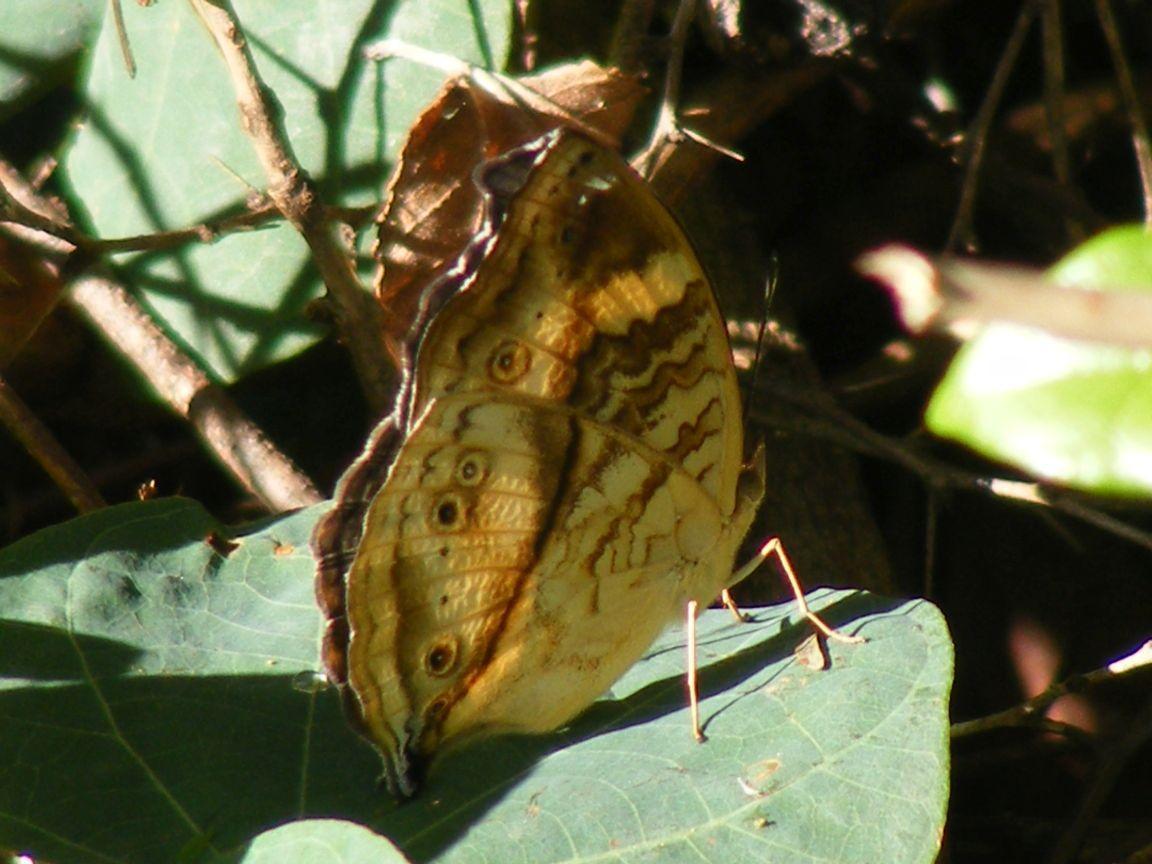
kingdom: Animalia
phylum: Arthropoda
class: Insecta
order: Lepidoptera
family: Nymphalidae
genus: Junonia
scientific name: Junonia terea
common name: Soldier pansy
